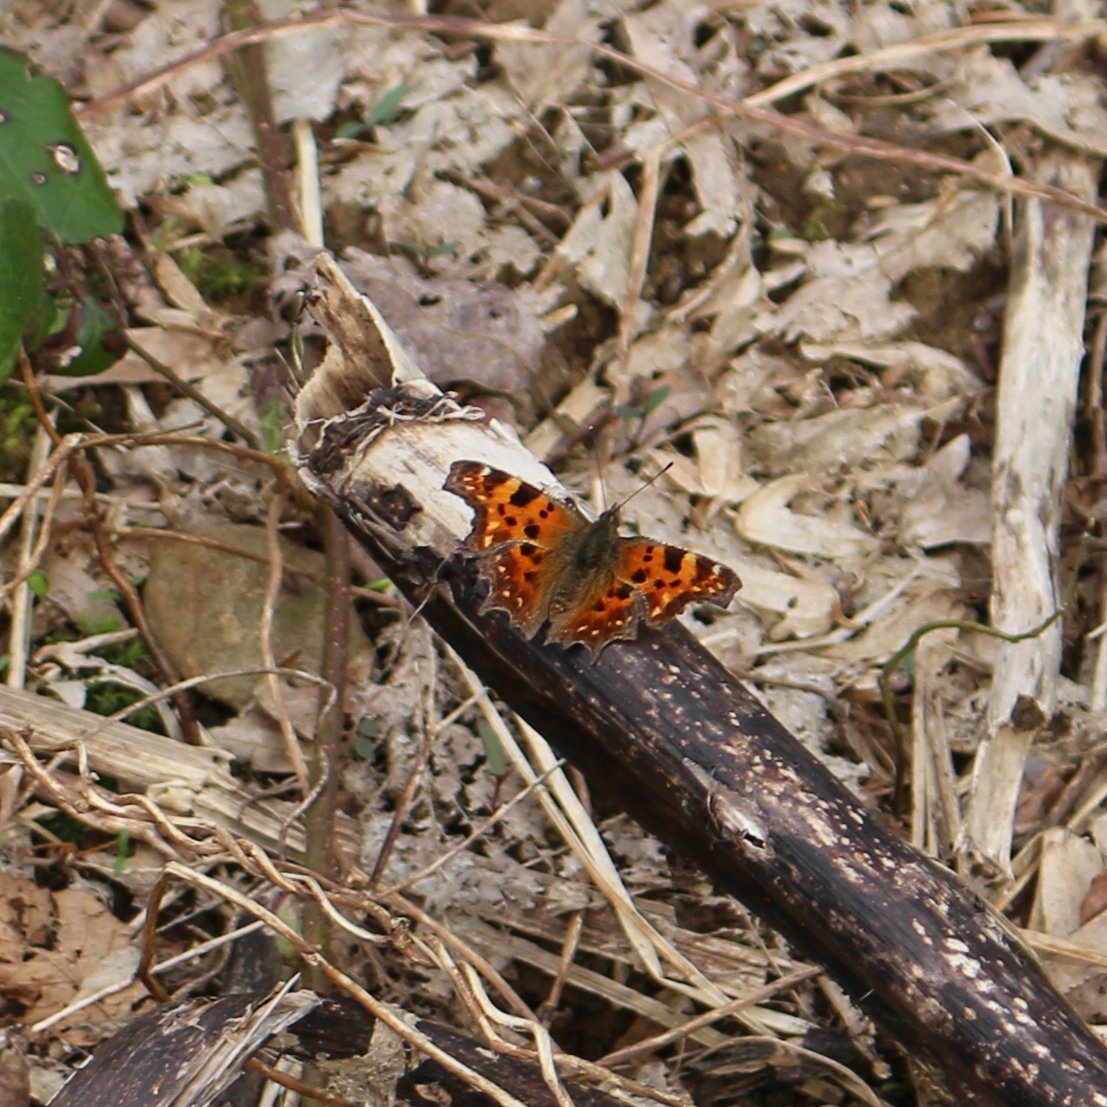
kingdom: Animalia
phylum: Arthropoda
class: Insecta
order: Lepidoptera
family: Nymphalidae
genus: Polygonia
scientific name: Polygonia c-album
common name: Comma
